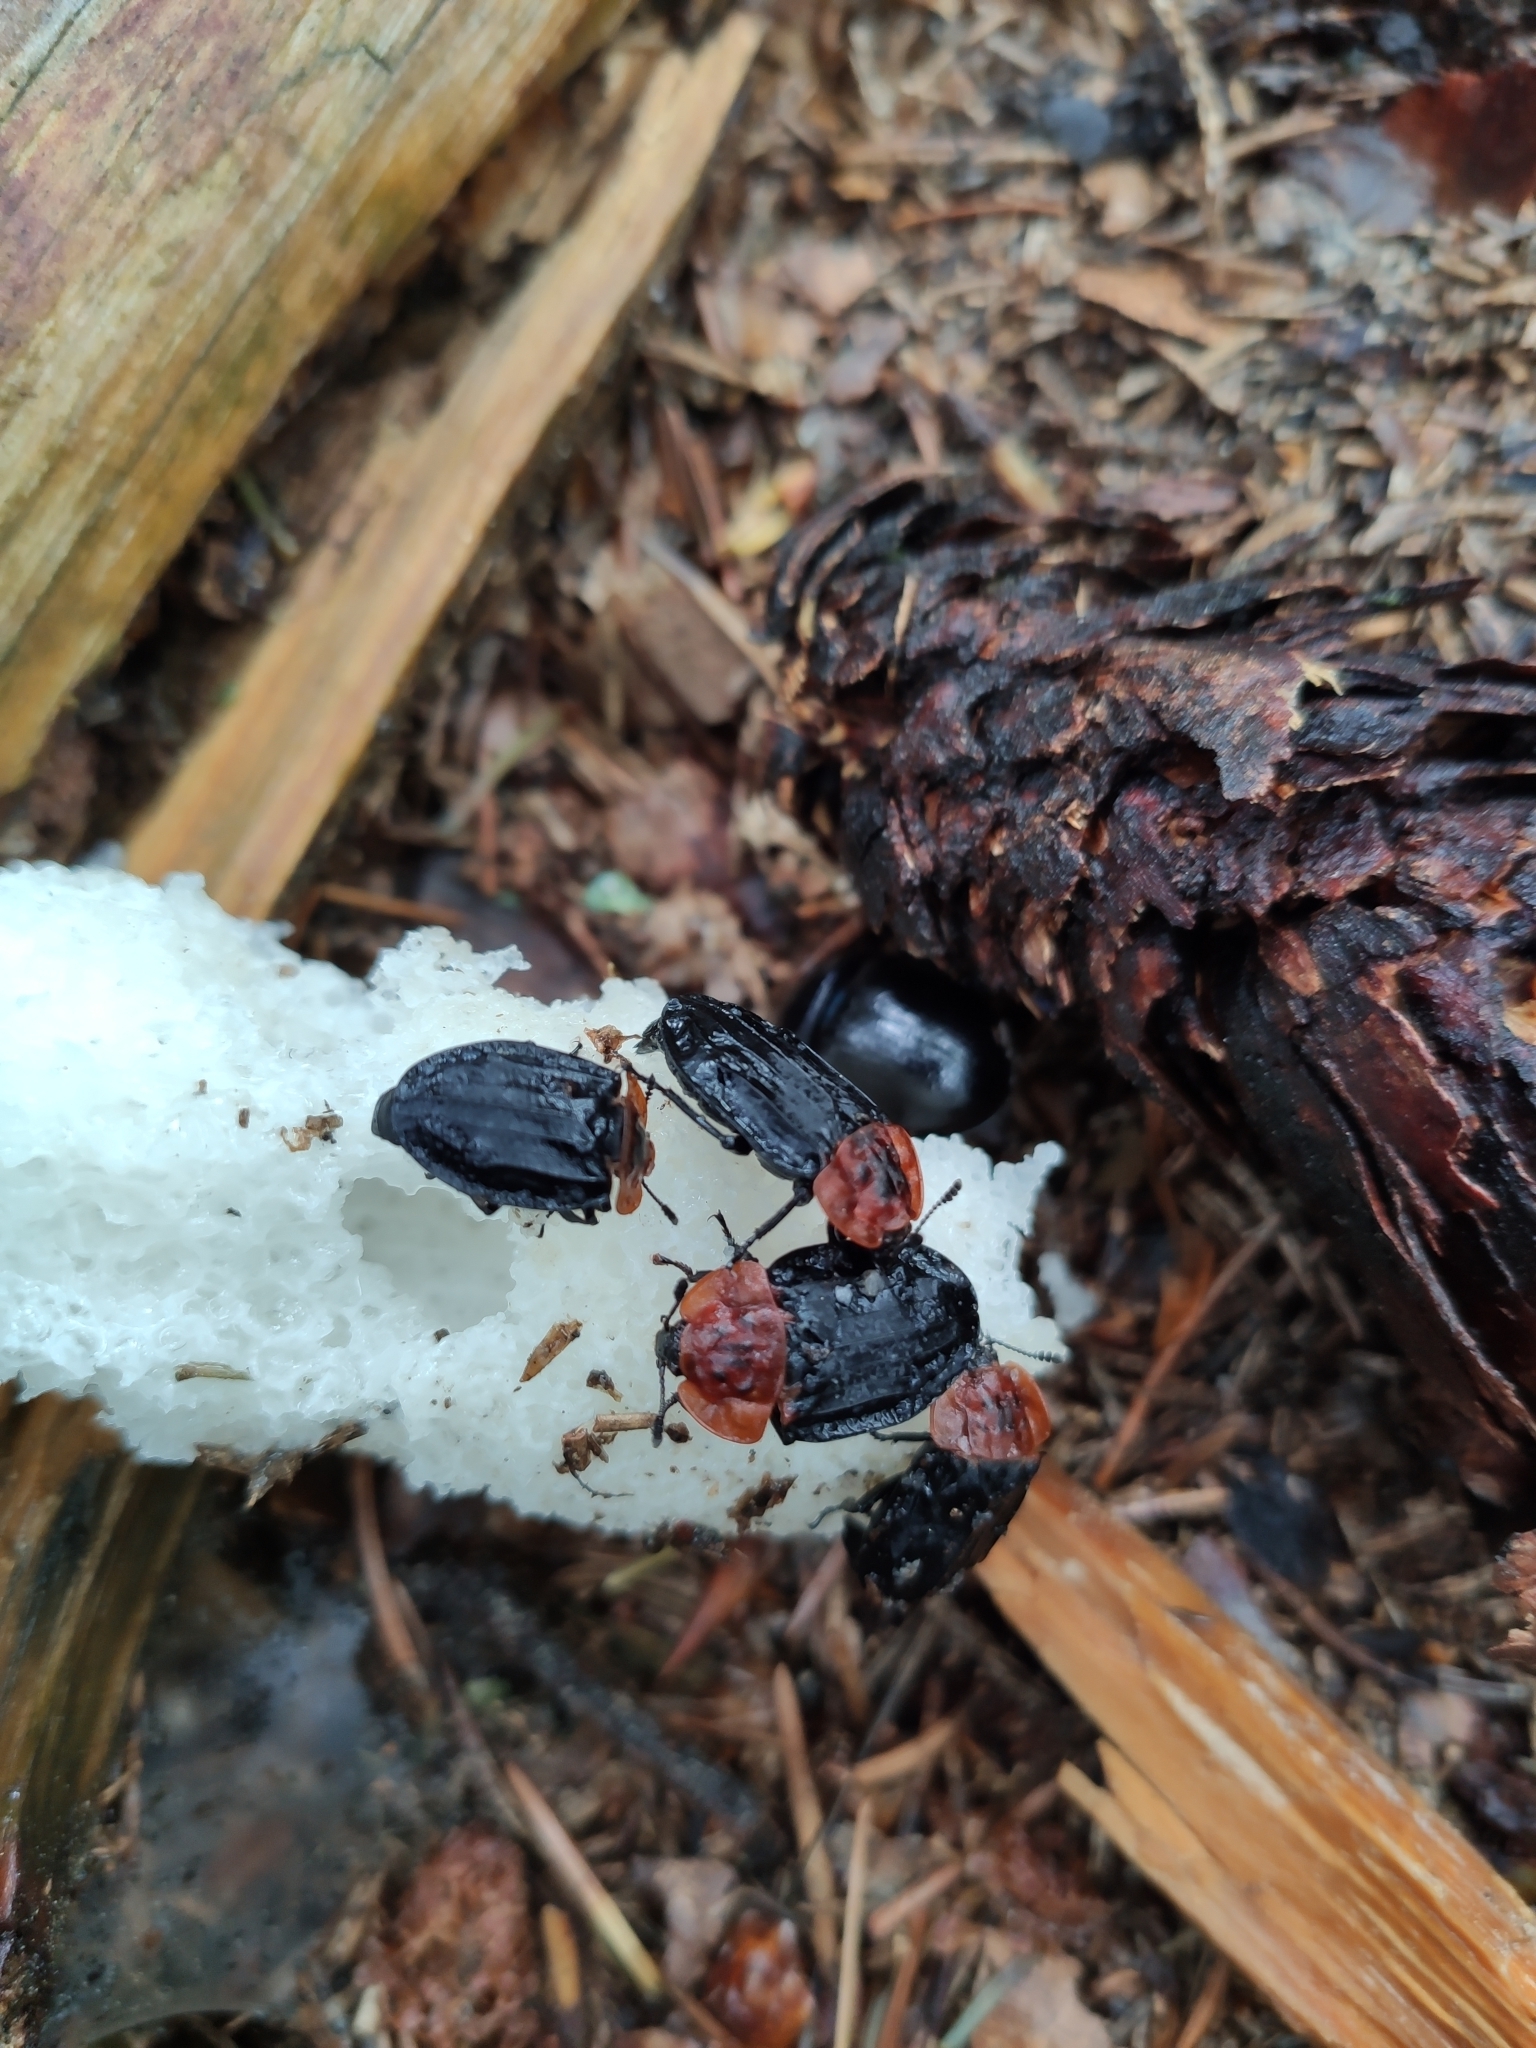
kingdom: Animalia
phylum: Arthropoda
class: Insecta
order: Coleoptera
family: Staphylinidae
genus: Oiceoptoma
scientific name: Oiceoptoma thoracicum
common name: Red-breasted carrion beetle
